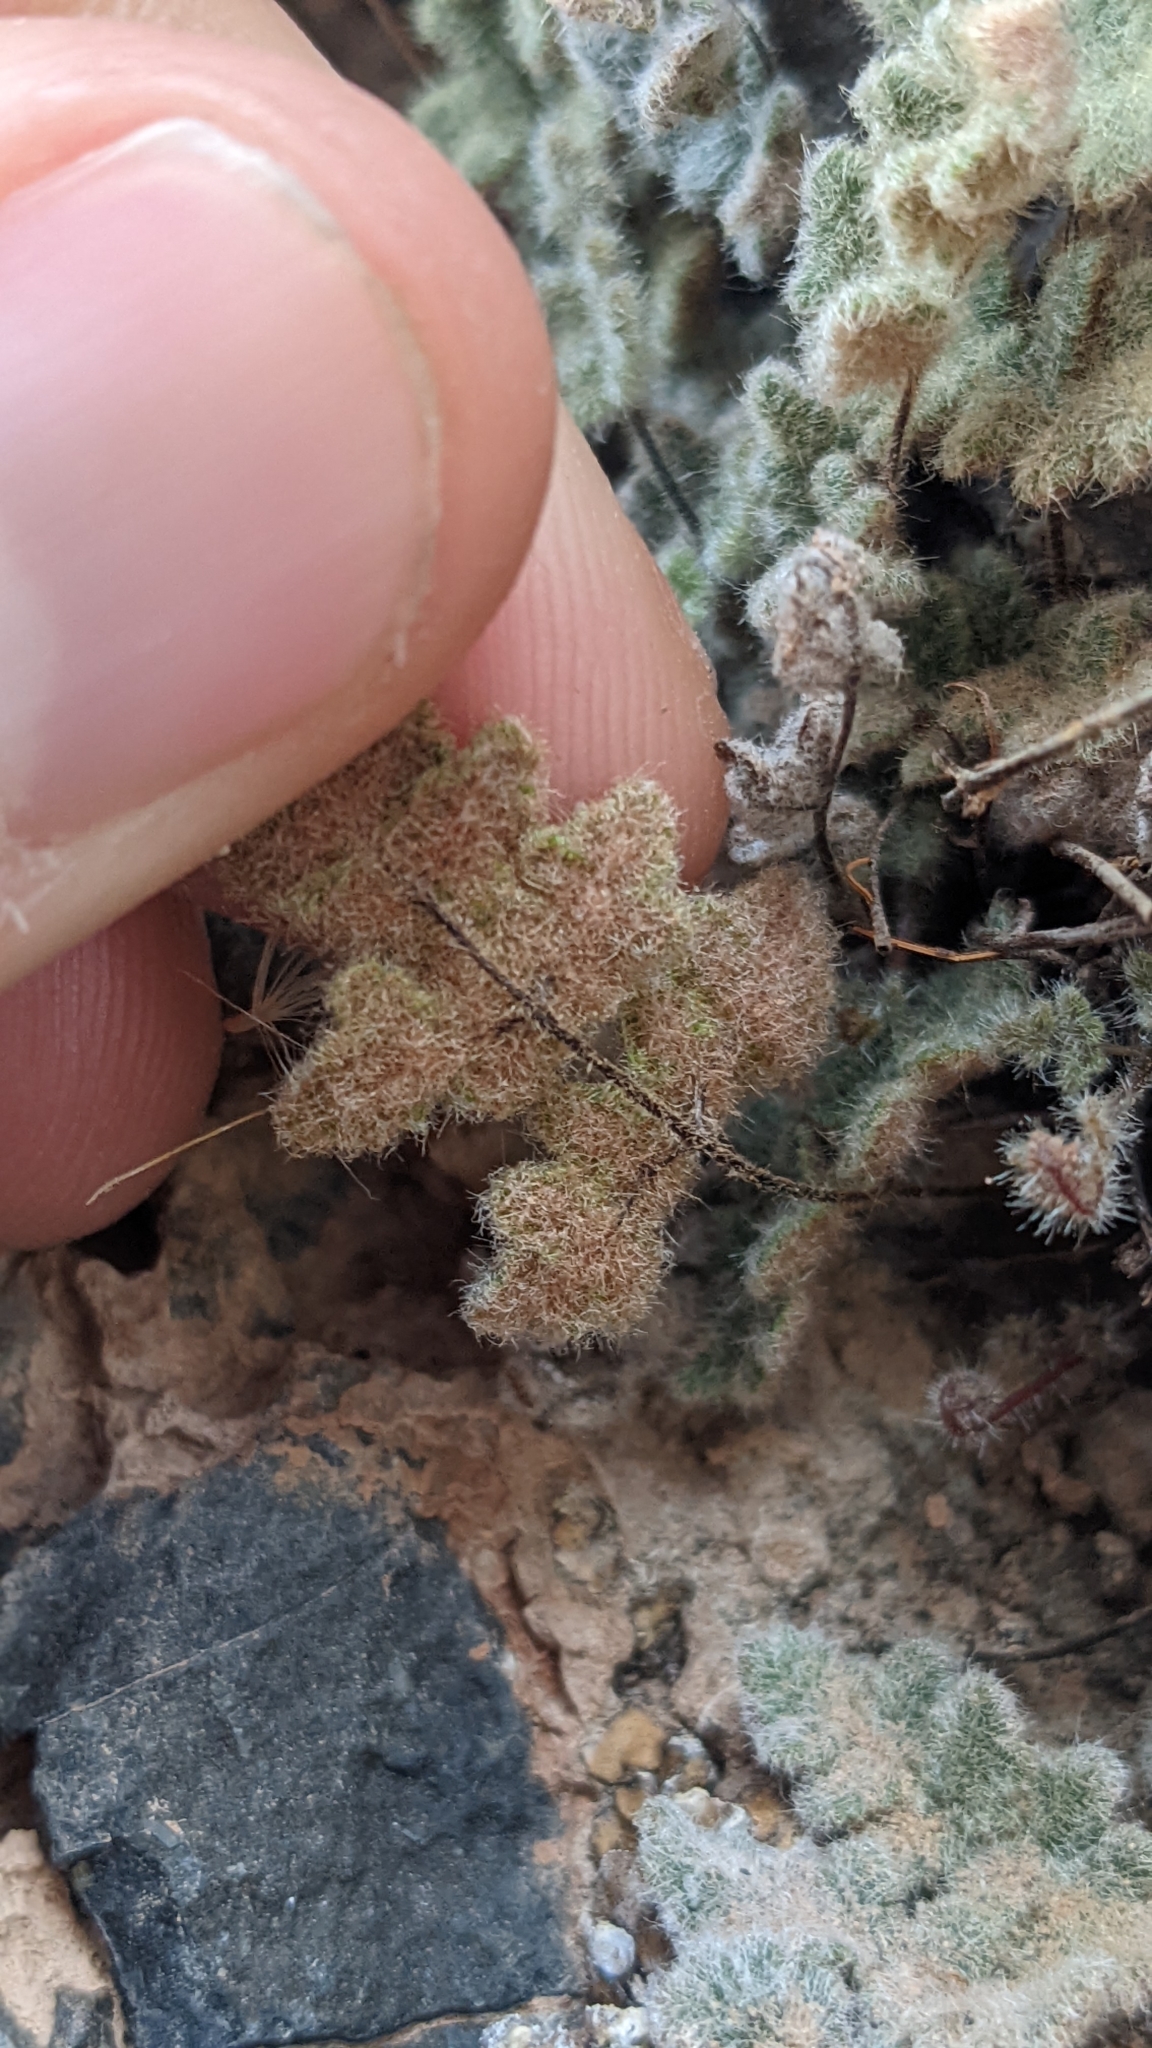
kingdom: Plantae
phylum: Tracheophyta
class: Polypodiopsida
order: Polypodiales
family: Pteridaceae
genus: Myriopteris
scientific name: Myriopteris parryi
